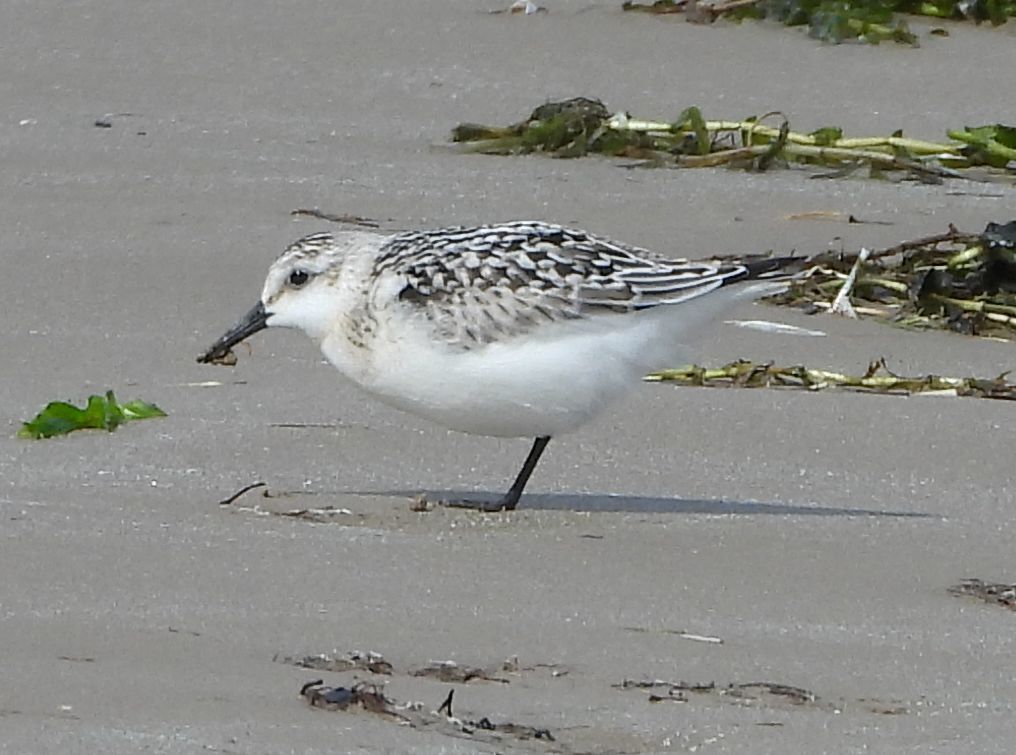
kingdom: Animalia
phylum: Chordata
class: Aves
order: Charadriiformes
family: Scolopacidae
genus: Calidris
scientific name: Calidris alba
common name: Sanderling
